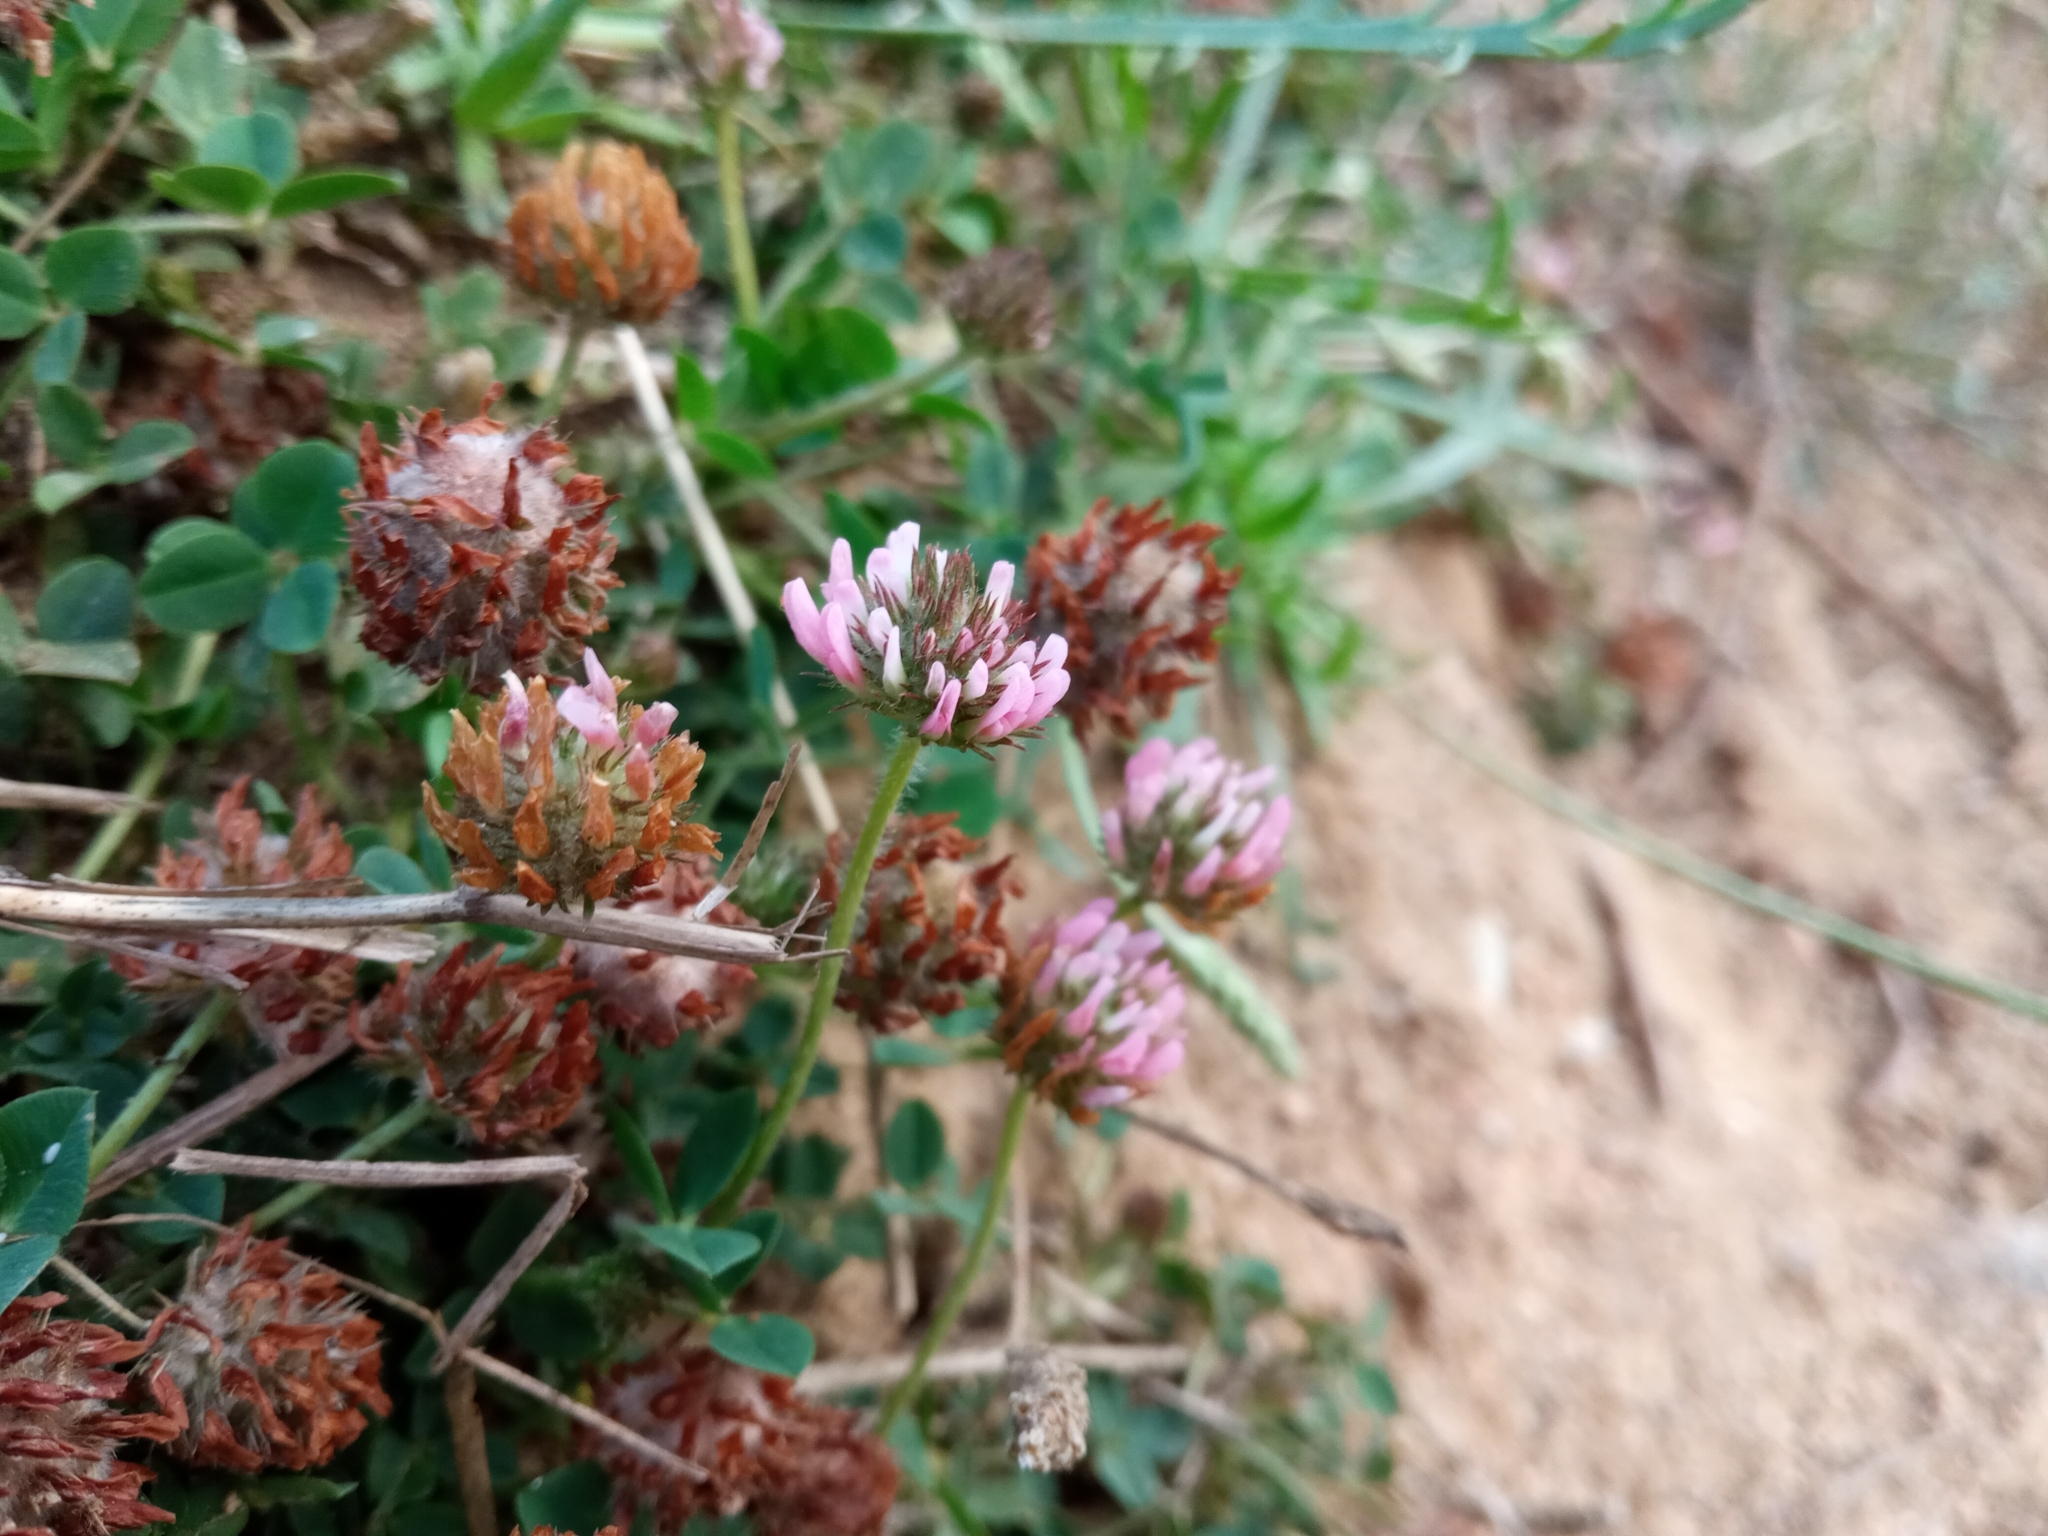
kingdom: Plantae
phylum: Tracheophyta
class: Magnoliopsida
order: Fabales
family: Fabaceae
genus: Trifolium
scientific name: Trifolium fragiferum
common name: Strawberry clover
